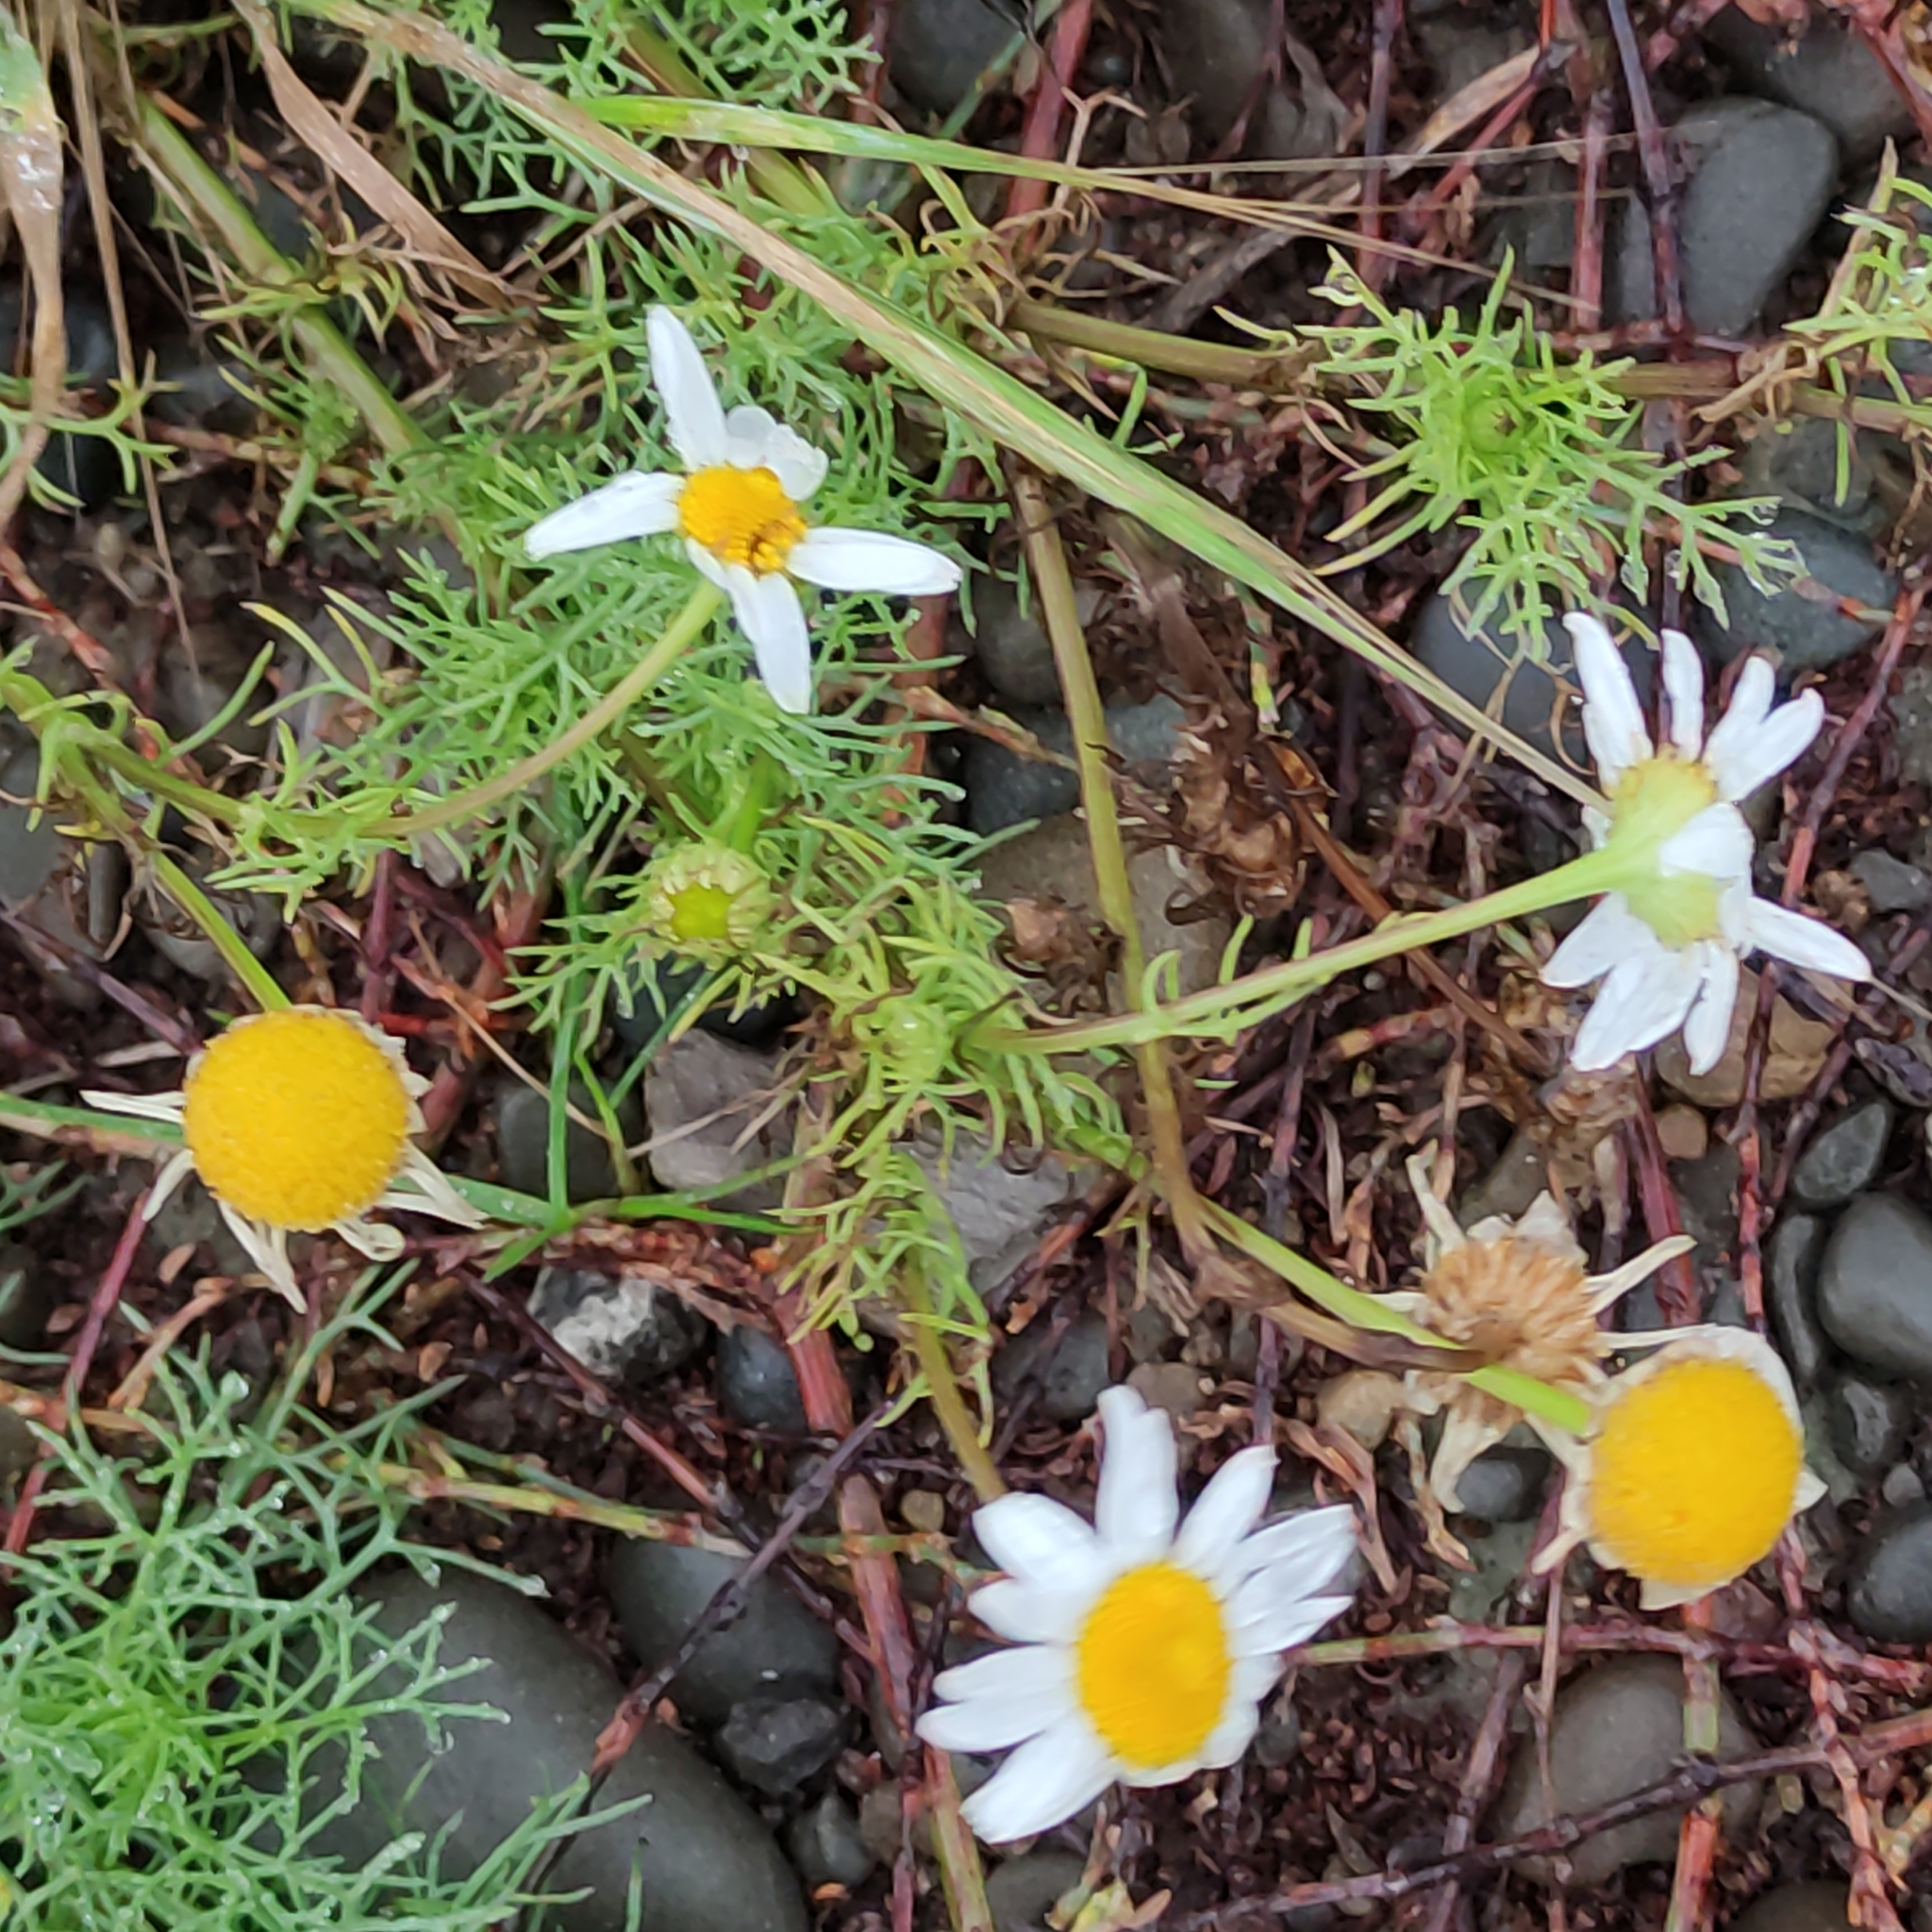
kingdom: Plantae
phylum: Tracheophyta
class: Magnoliopsida
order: Asterales
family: Asteraceae
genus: Tripleurospermum
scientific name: Tripleurospermum inodorum
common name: Scentless mayweed
